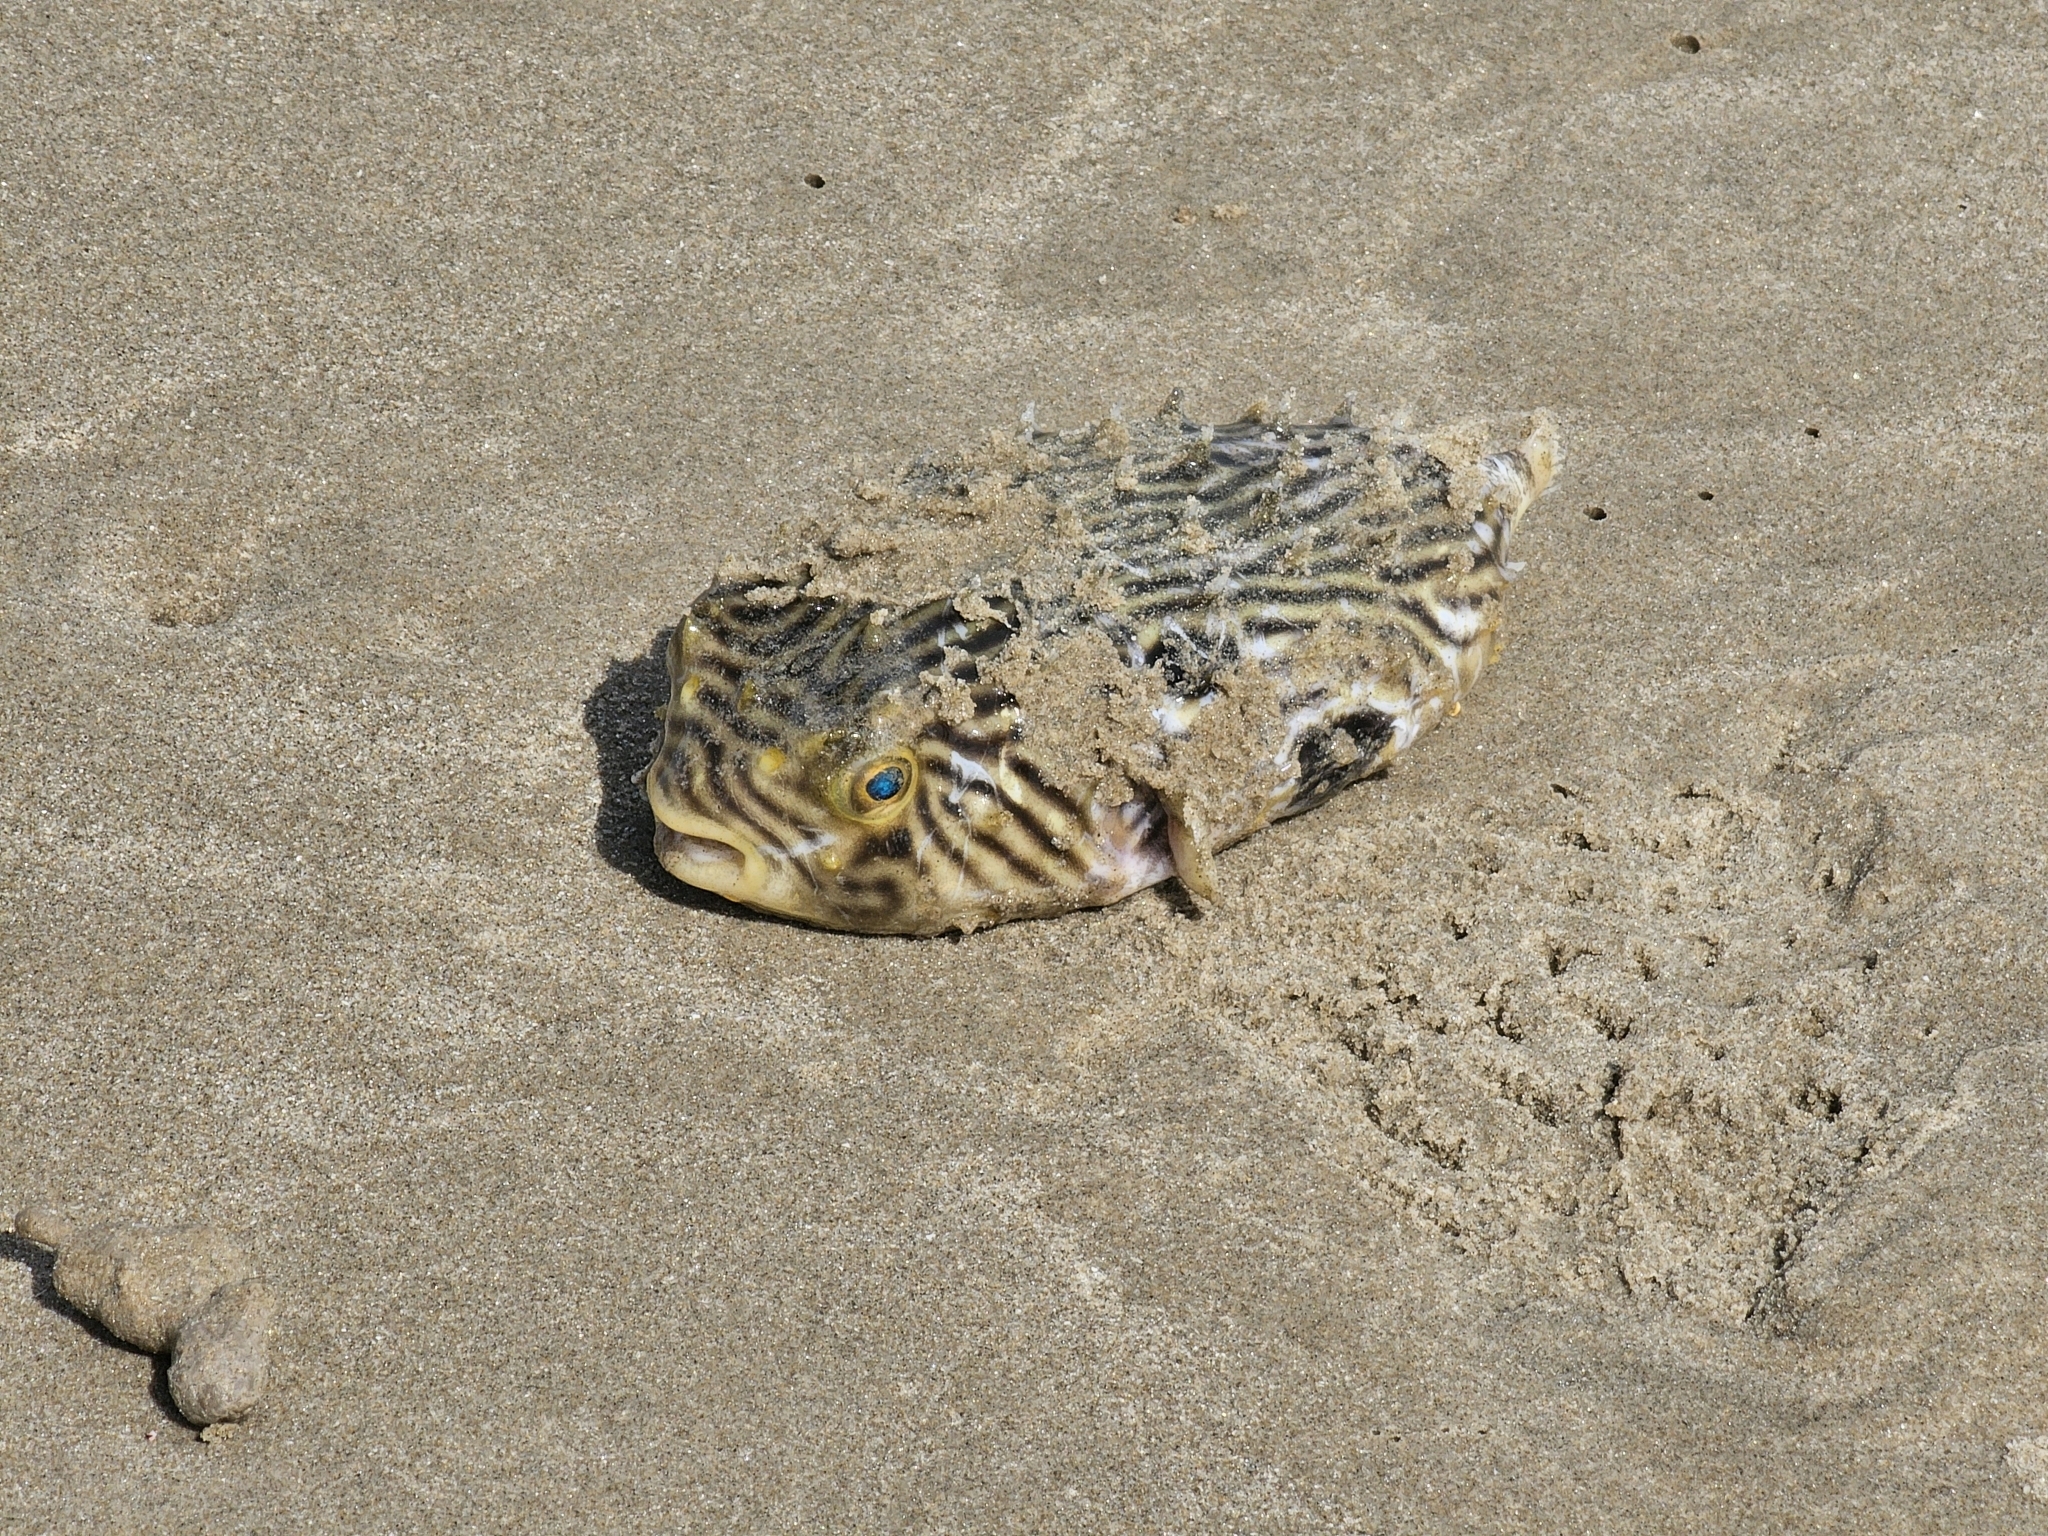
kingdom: Animalia
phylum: Chordata
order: Tetraodontiformes
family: Diodontidae
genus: Chilomycterus
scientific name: Chilomycterus schoepfii
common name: Striped burrfish
